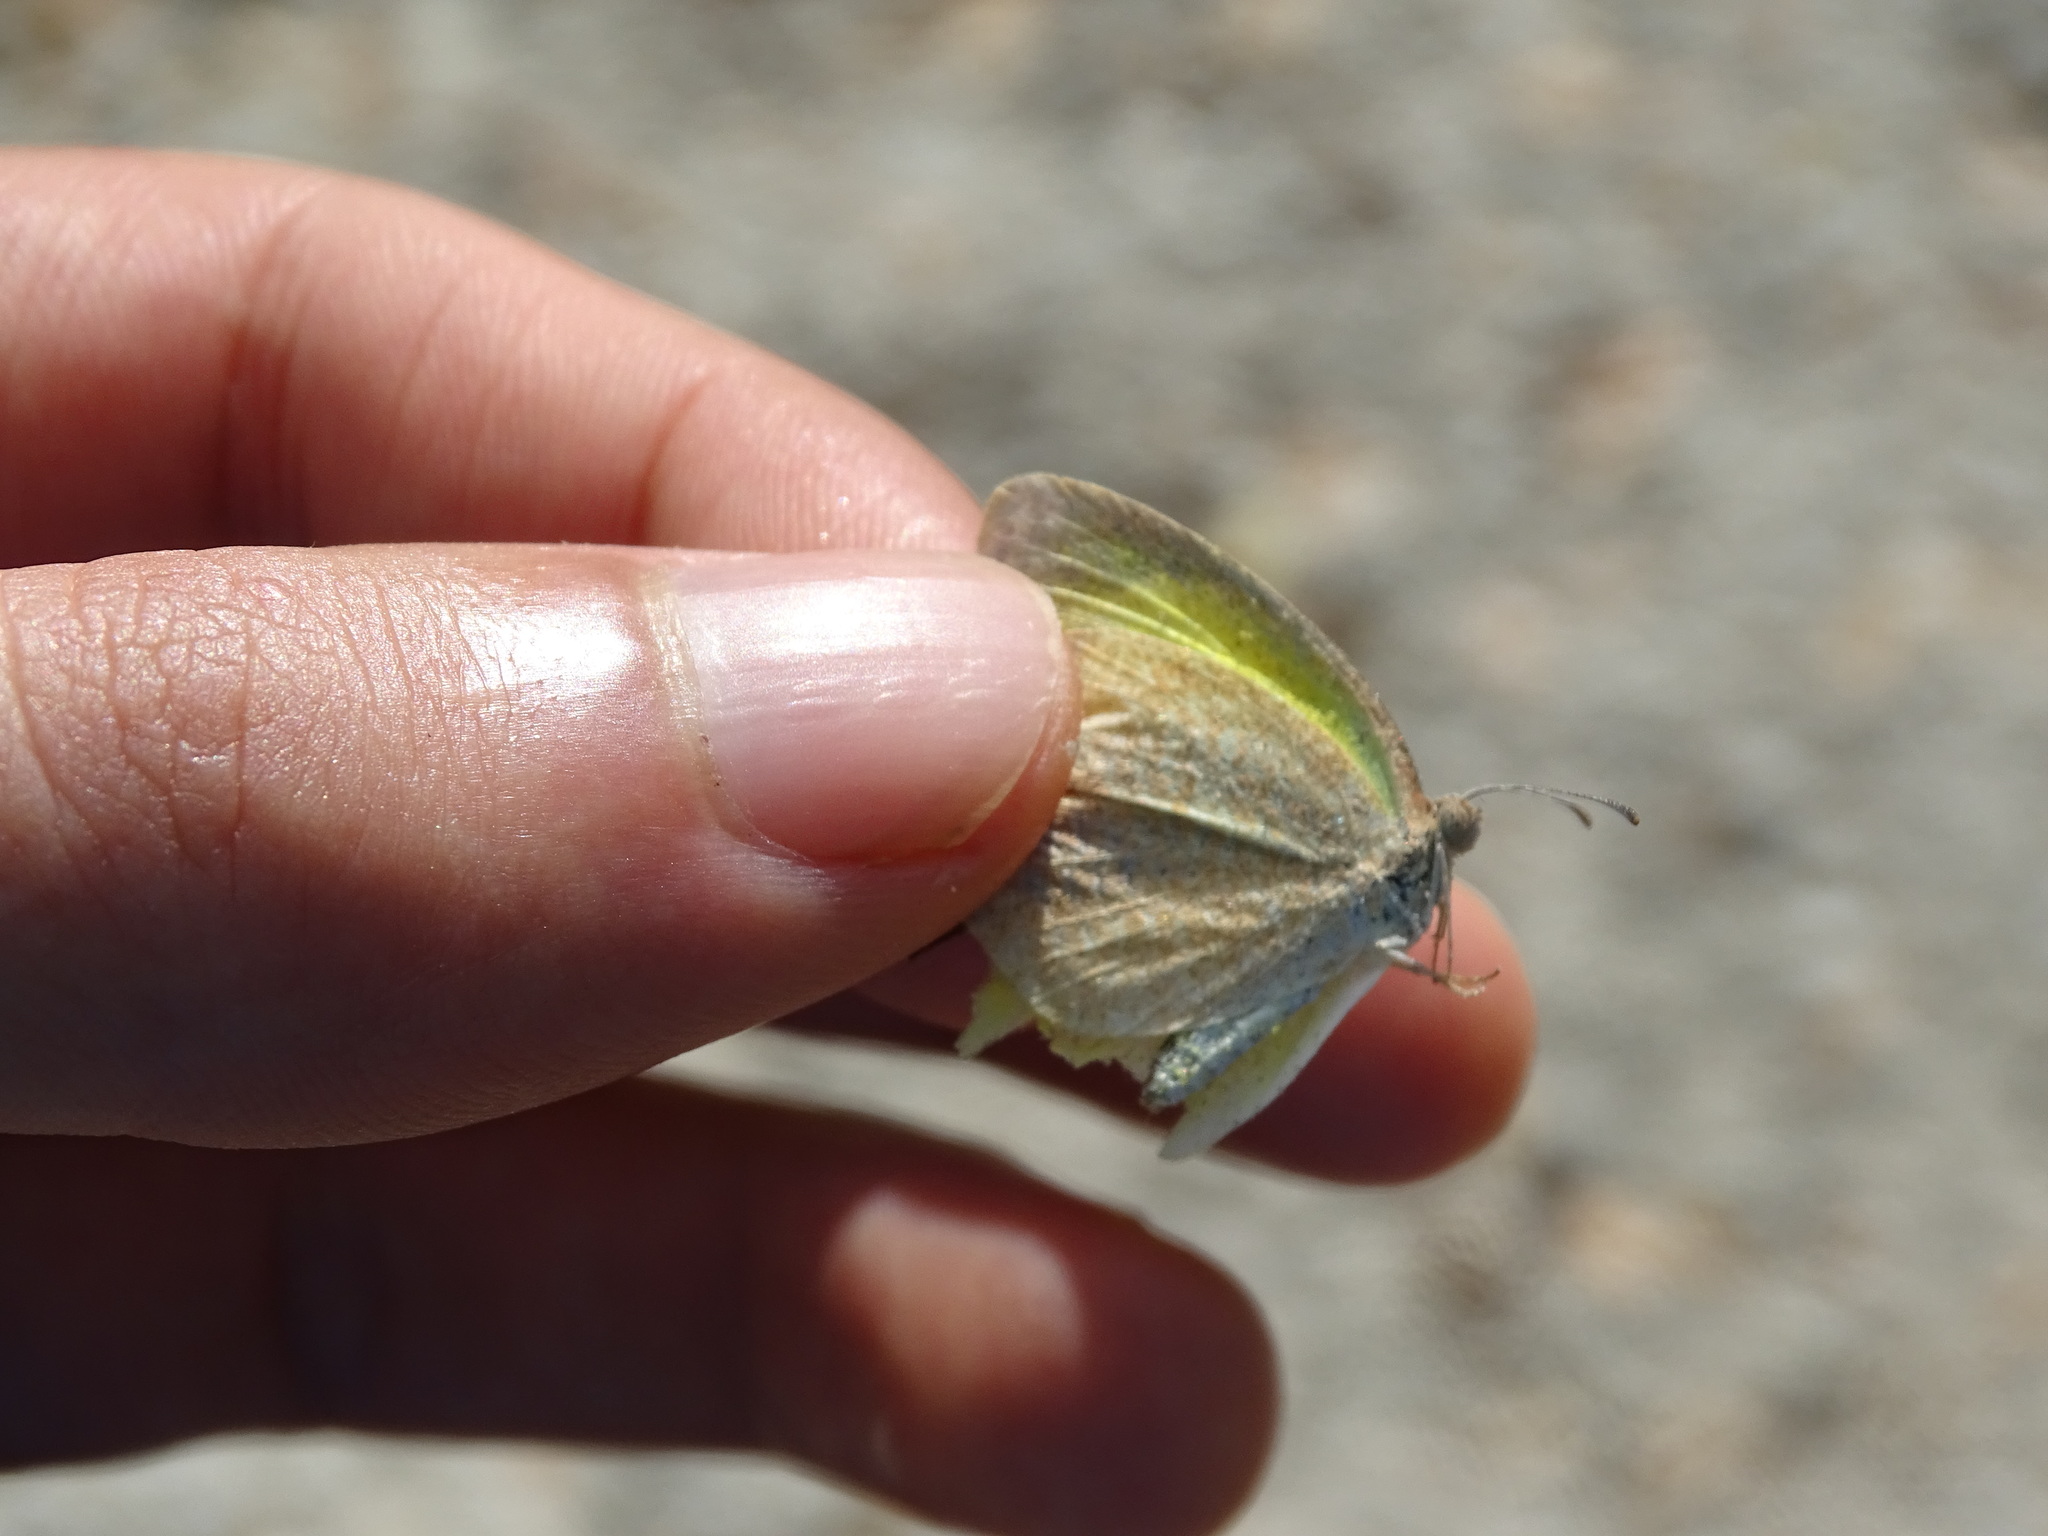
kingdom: Animalia
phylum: Arthropoda
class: Insecta
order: Lepidoptera
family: Pieridae
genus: Eurema
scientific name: Eurema daira
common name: Barred sulphur
